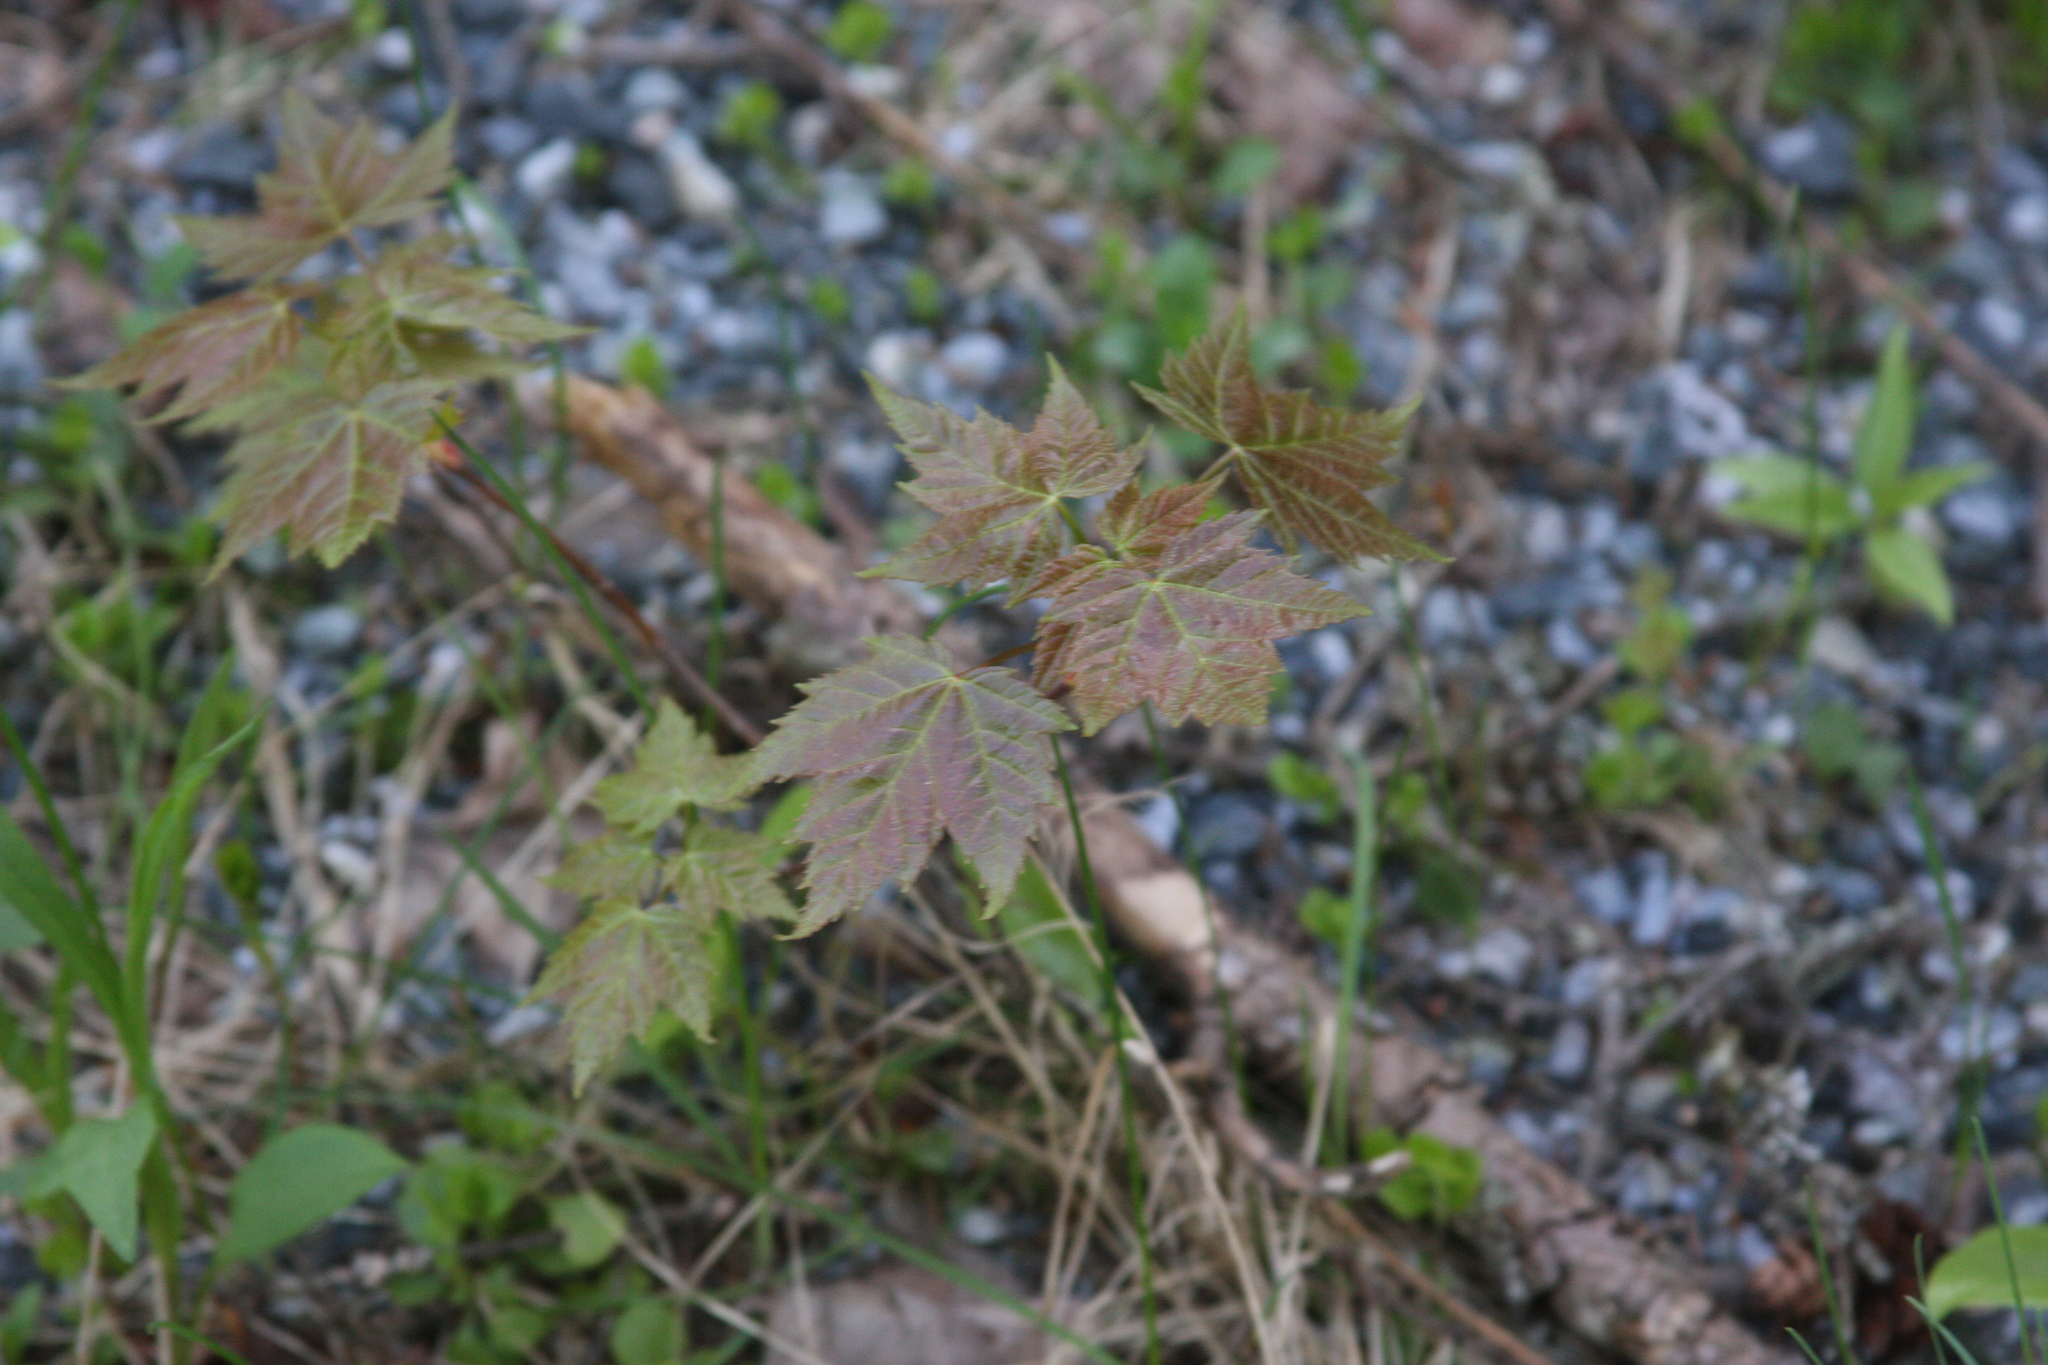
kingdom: Plantae
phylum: Tracheophyta
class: Magnoliopsida
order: Sapindales
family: Sapindaceae
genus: Acer
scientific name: Acer rubrum
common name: Red maple
